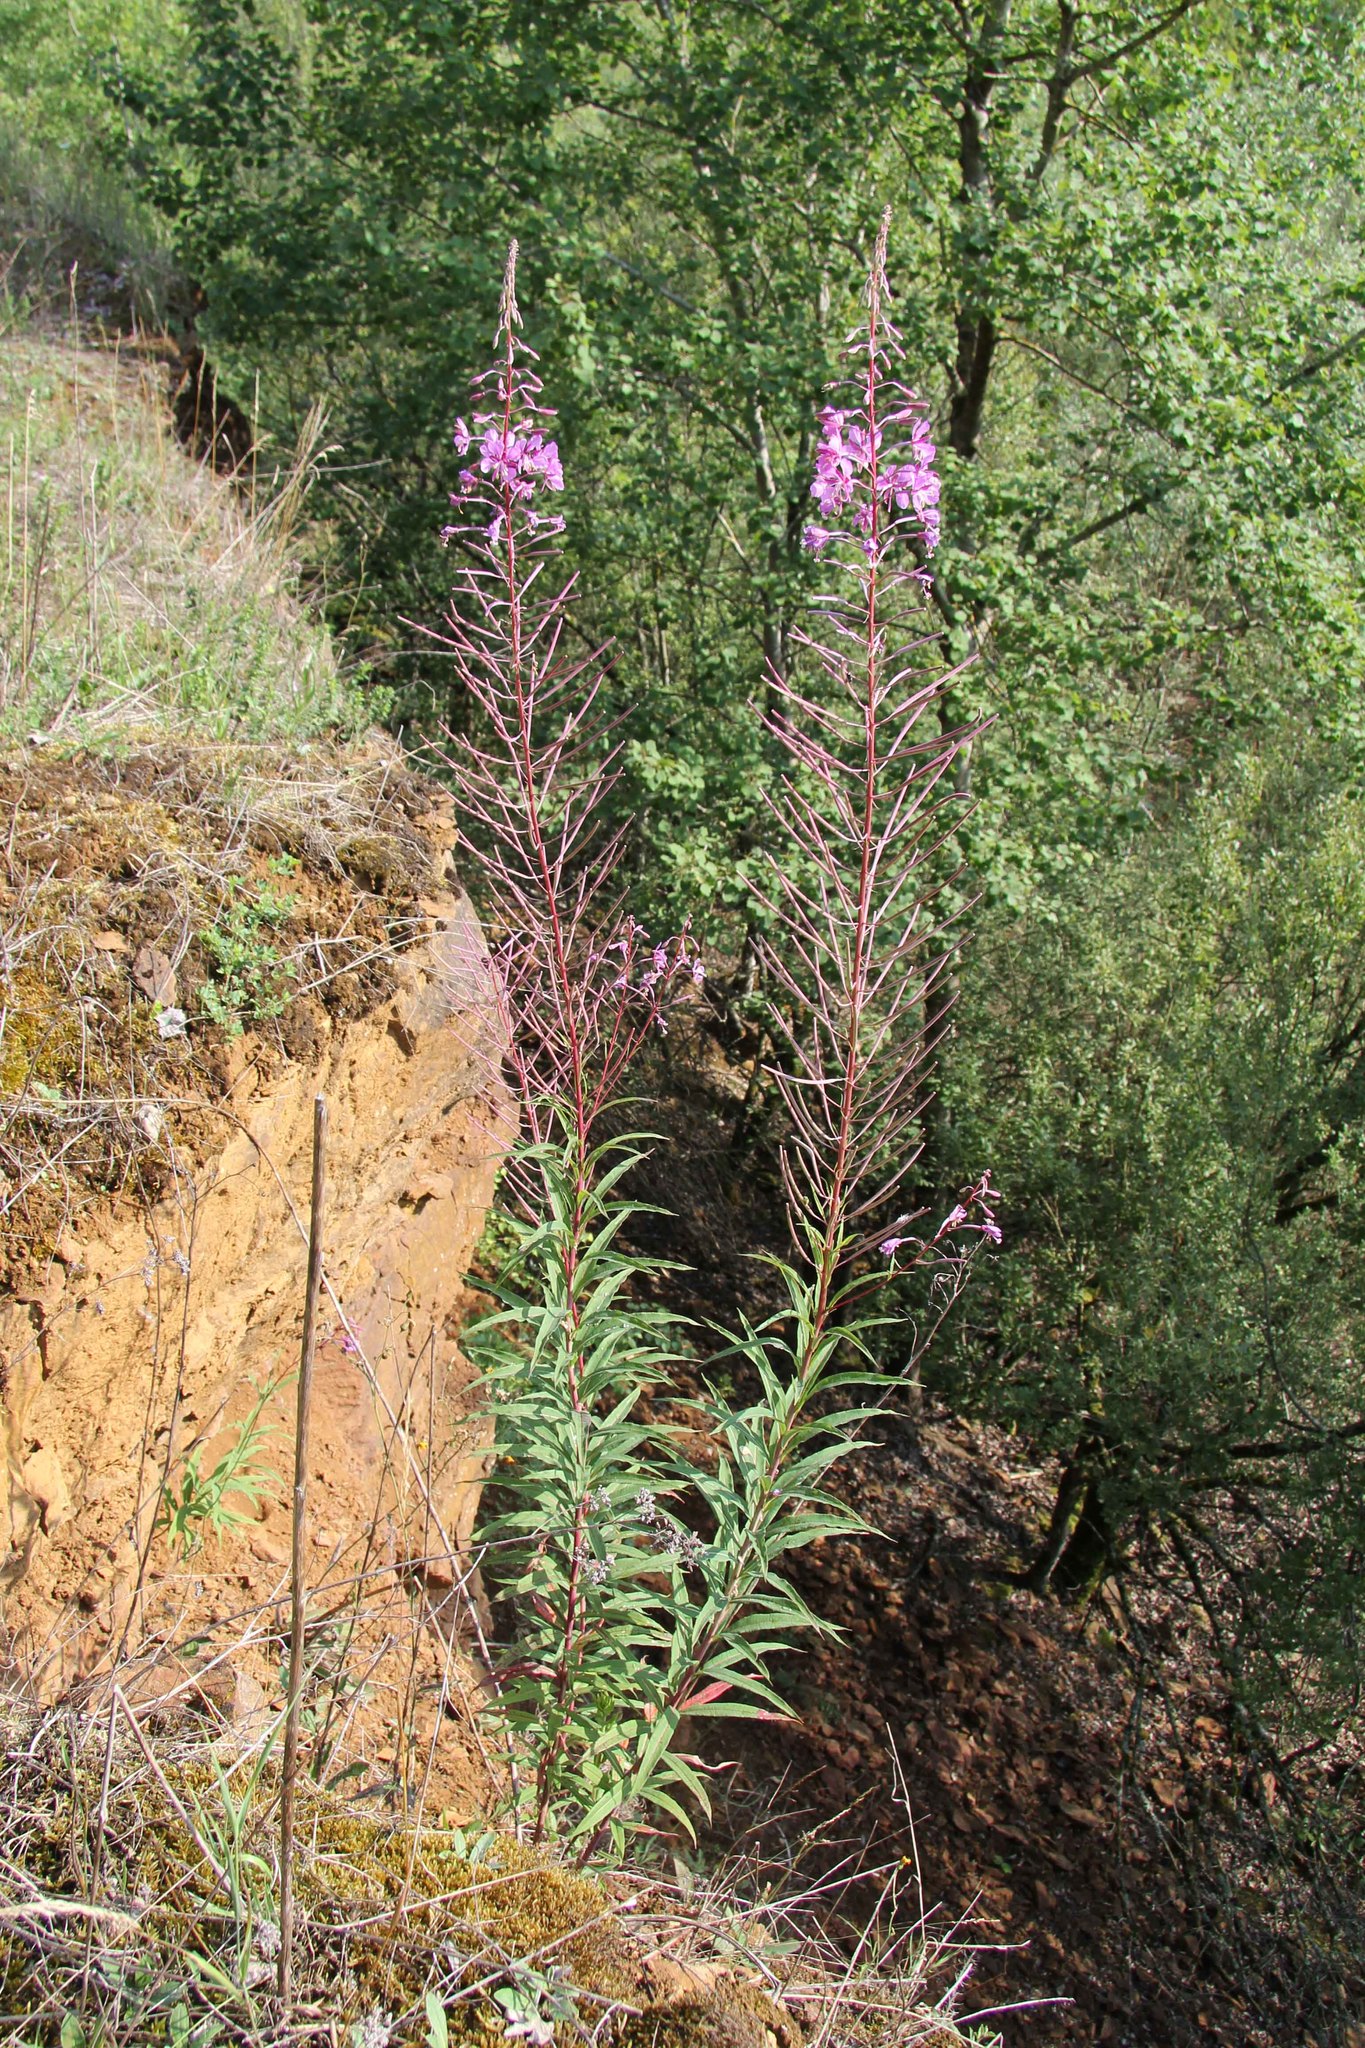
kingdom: Plantae
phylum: Tracheophyta
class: Magnoliopsida
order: Myrtales
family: Onagraceae
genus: Chamaenerion
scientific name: Chamaenerion angustifolium
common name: Fireweed
